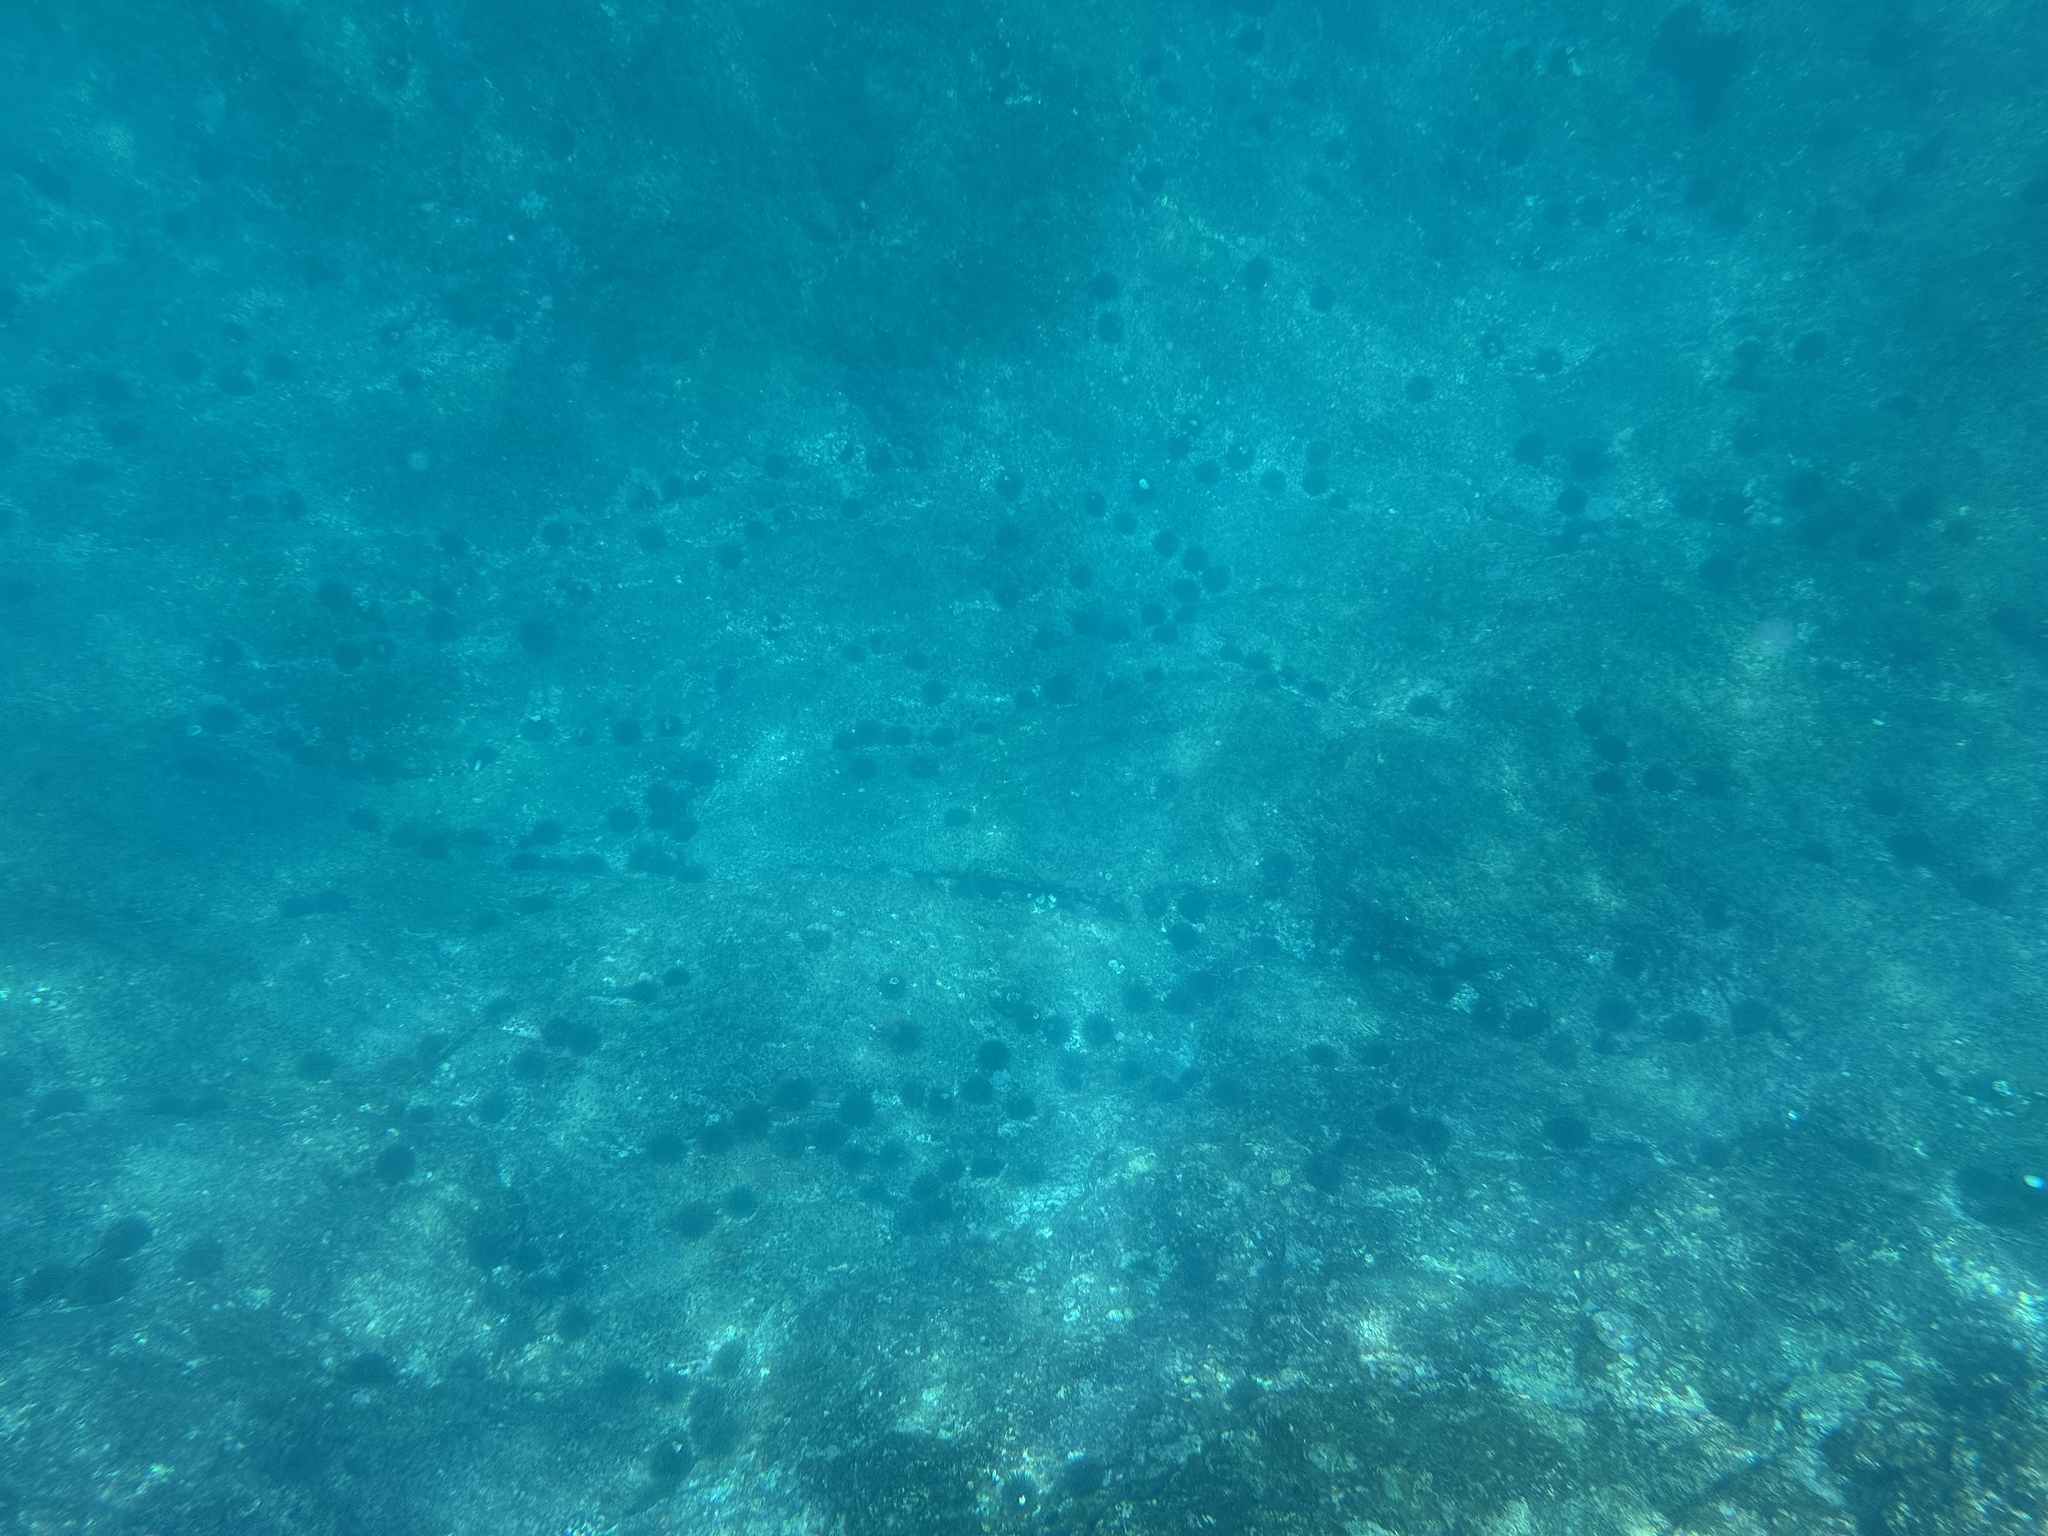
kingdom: Animalia
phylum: Echinodermata
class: Echinoidea
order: Camarodonta
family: Echinometridae
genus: Evechinus
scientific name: Evechinus chloroticus
